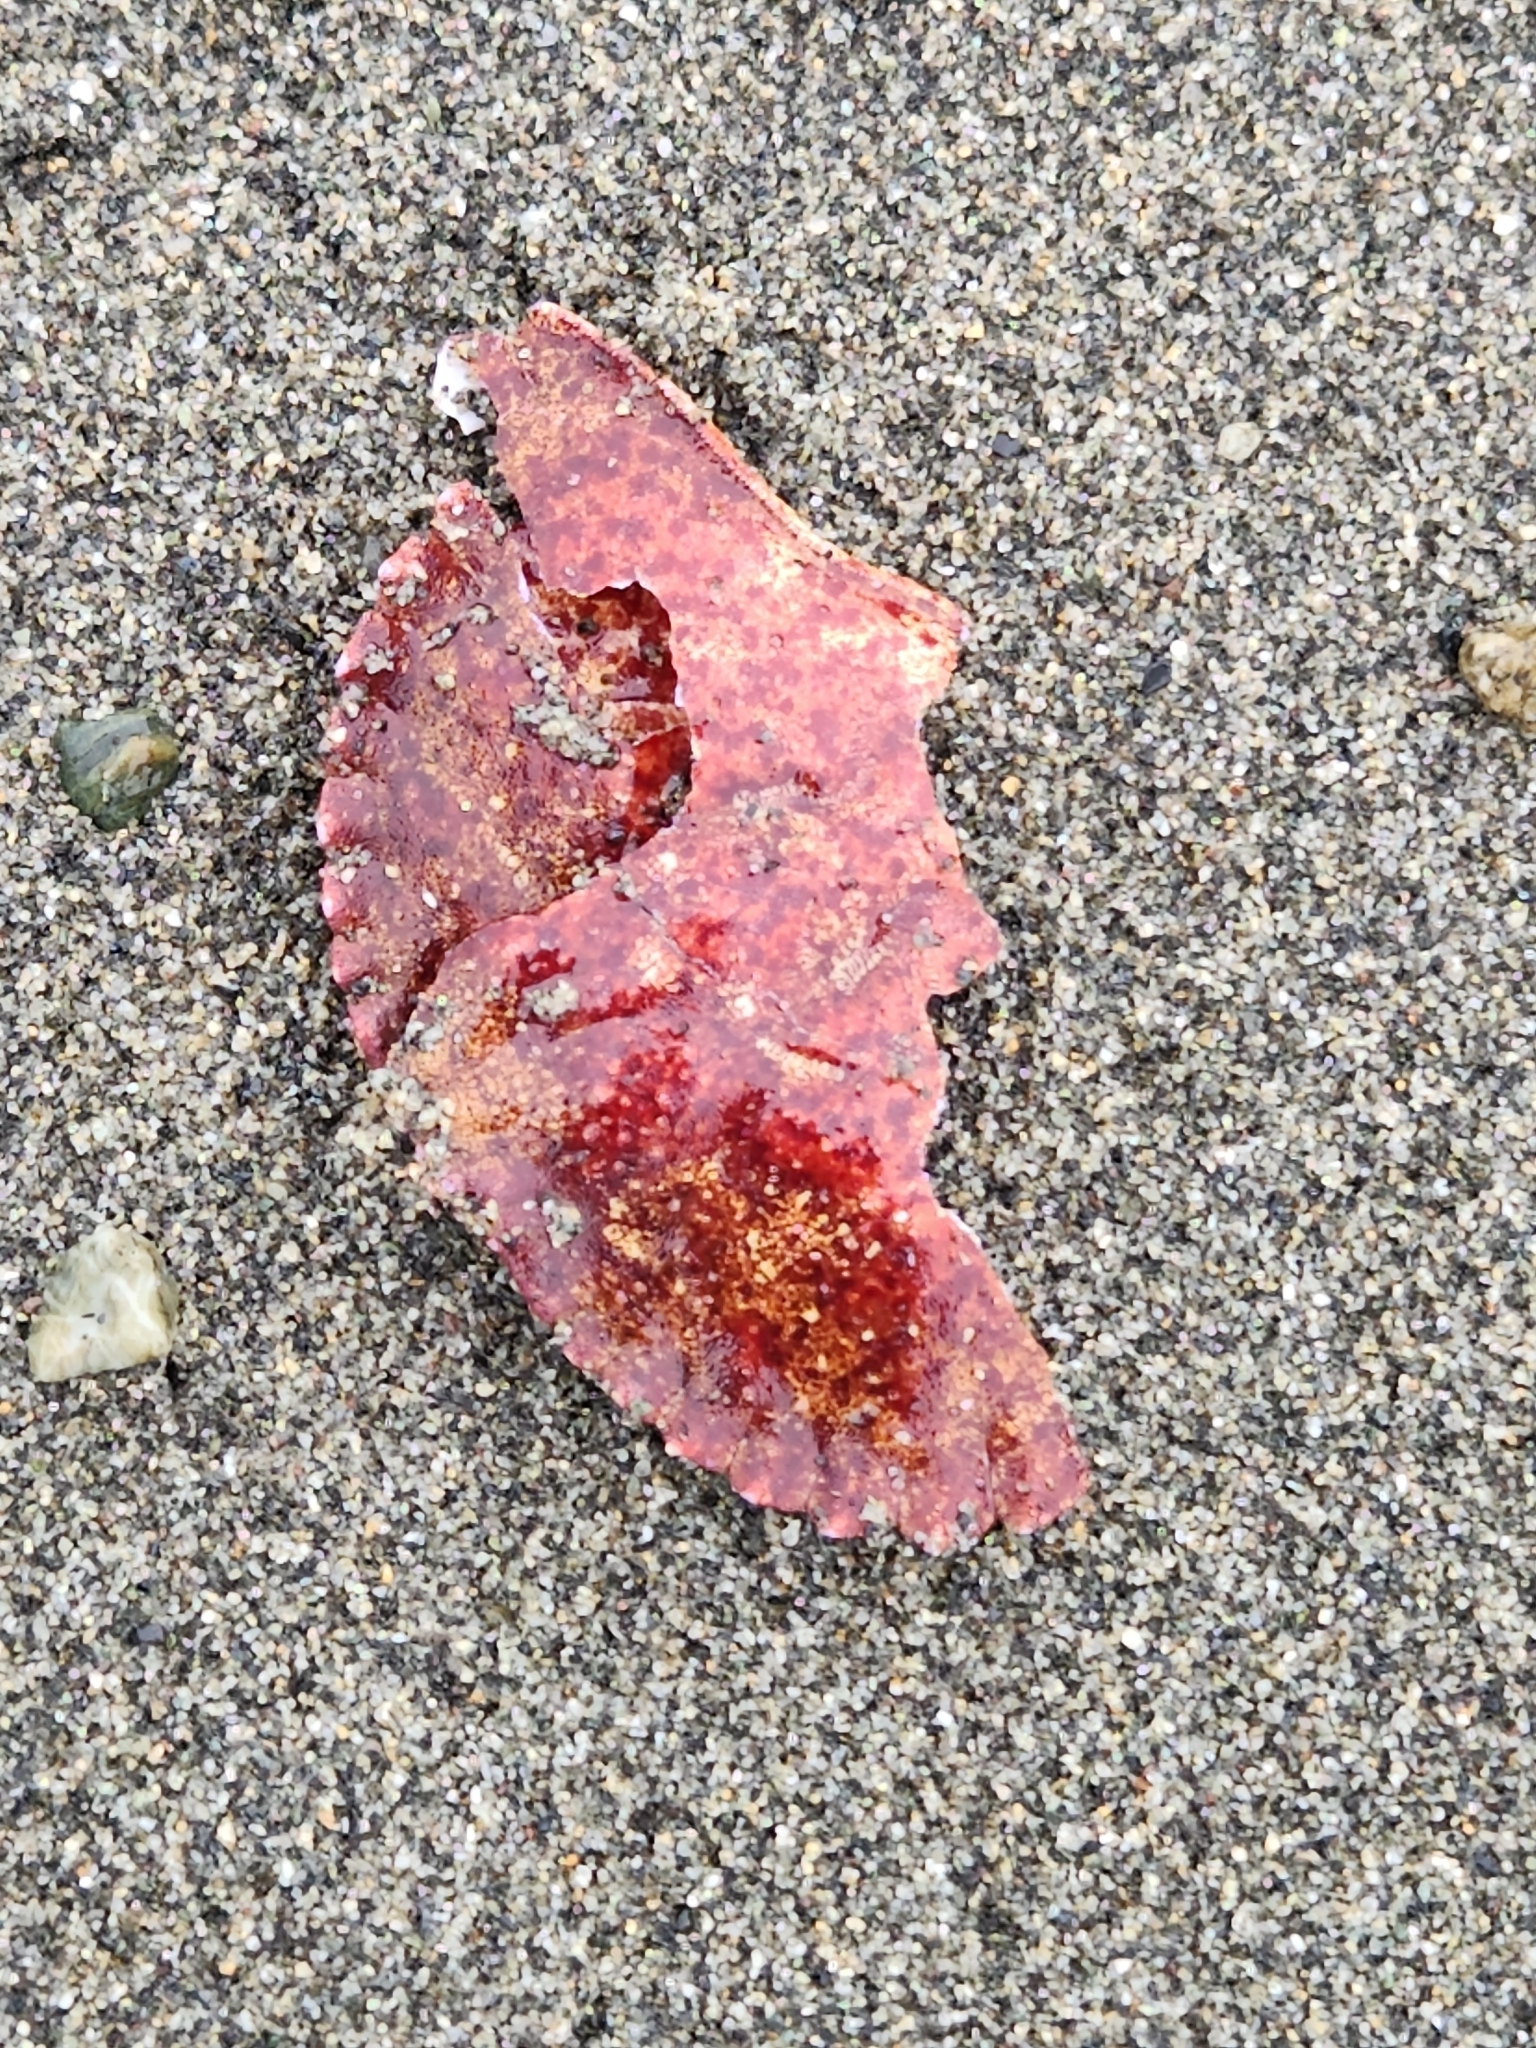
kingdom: Animalia
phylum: Arthropoda
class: Malacostraca
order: Decapoda
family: Cancridae
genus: Cancer
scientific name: Cancer productus
